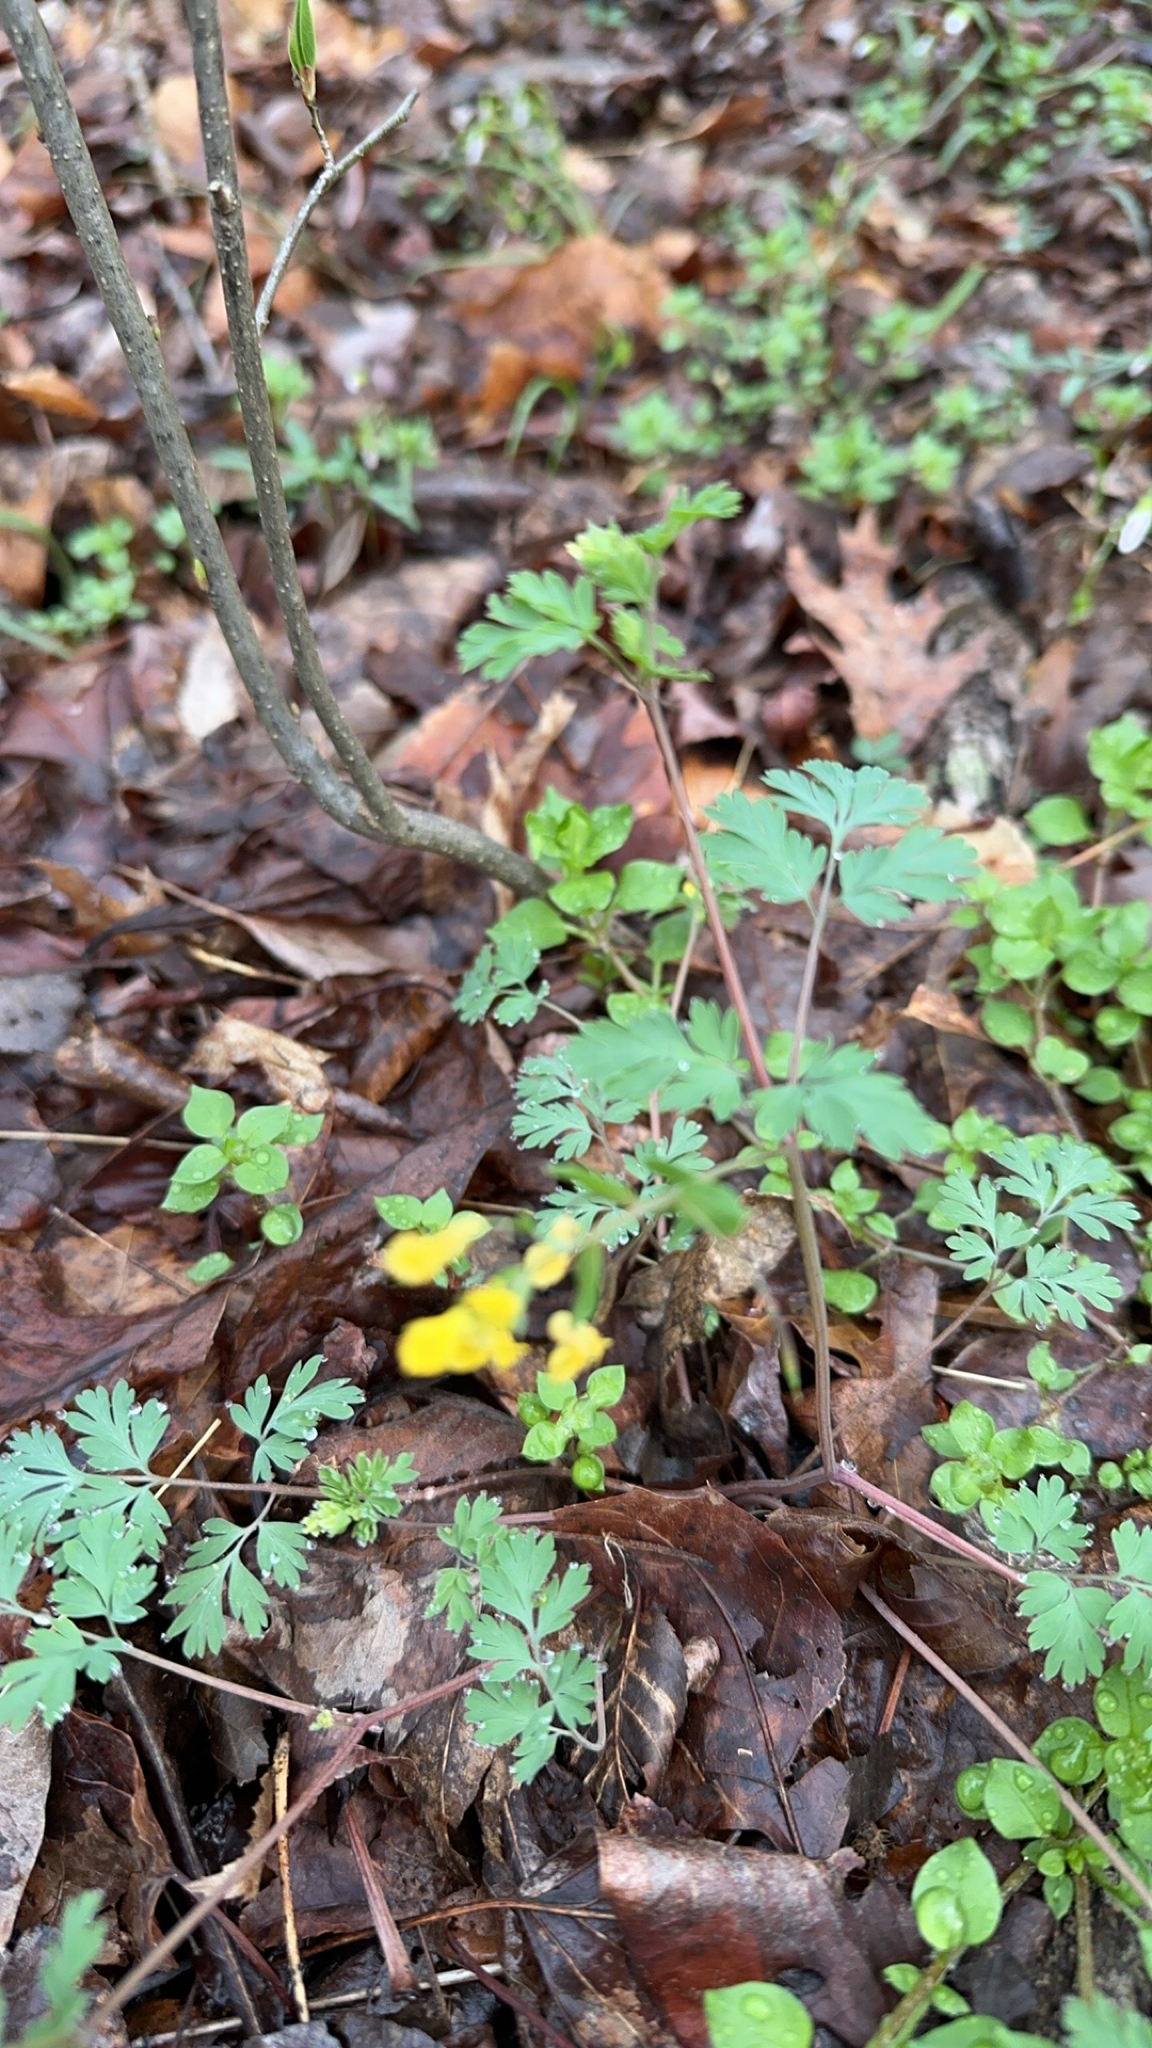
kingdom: Plantae
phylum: Tracheophyta
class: Magnoliopsida
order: Ranunculales
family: Papaveraceae
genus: Corydalis
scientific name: Corydalis flavula
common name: Yellow corydalis
